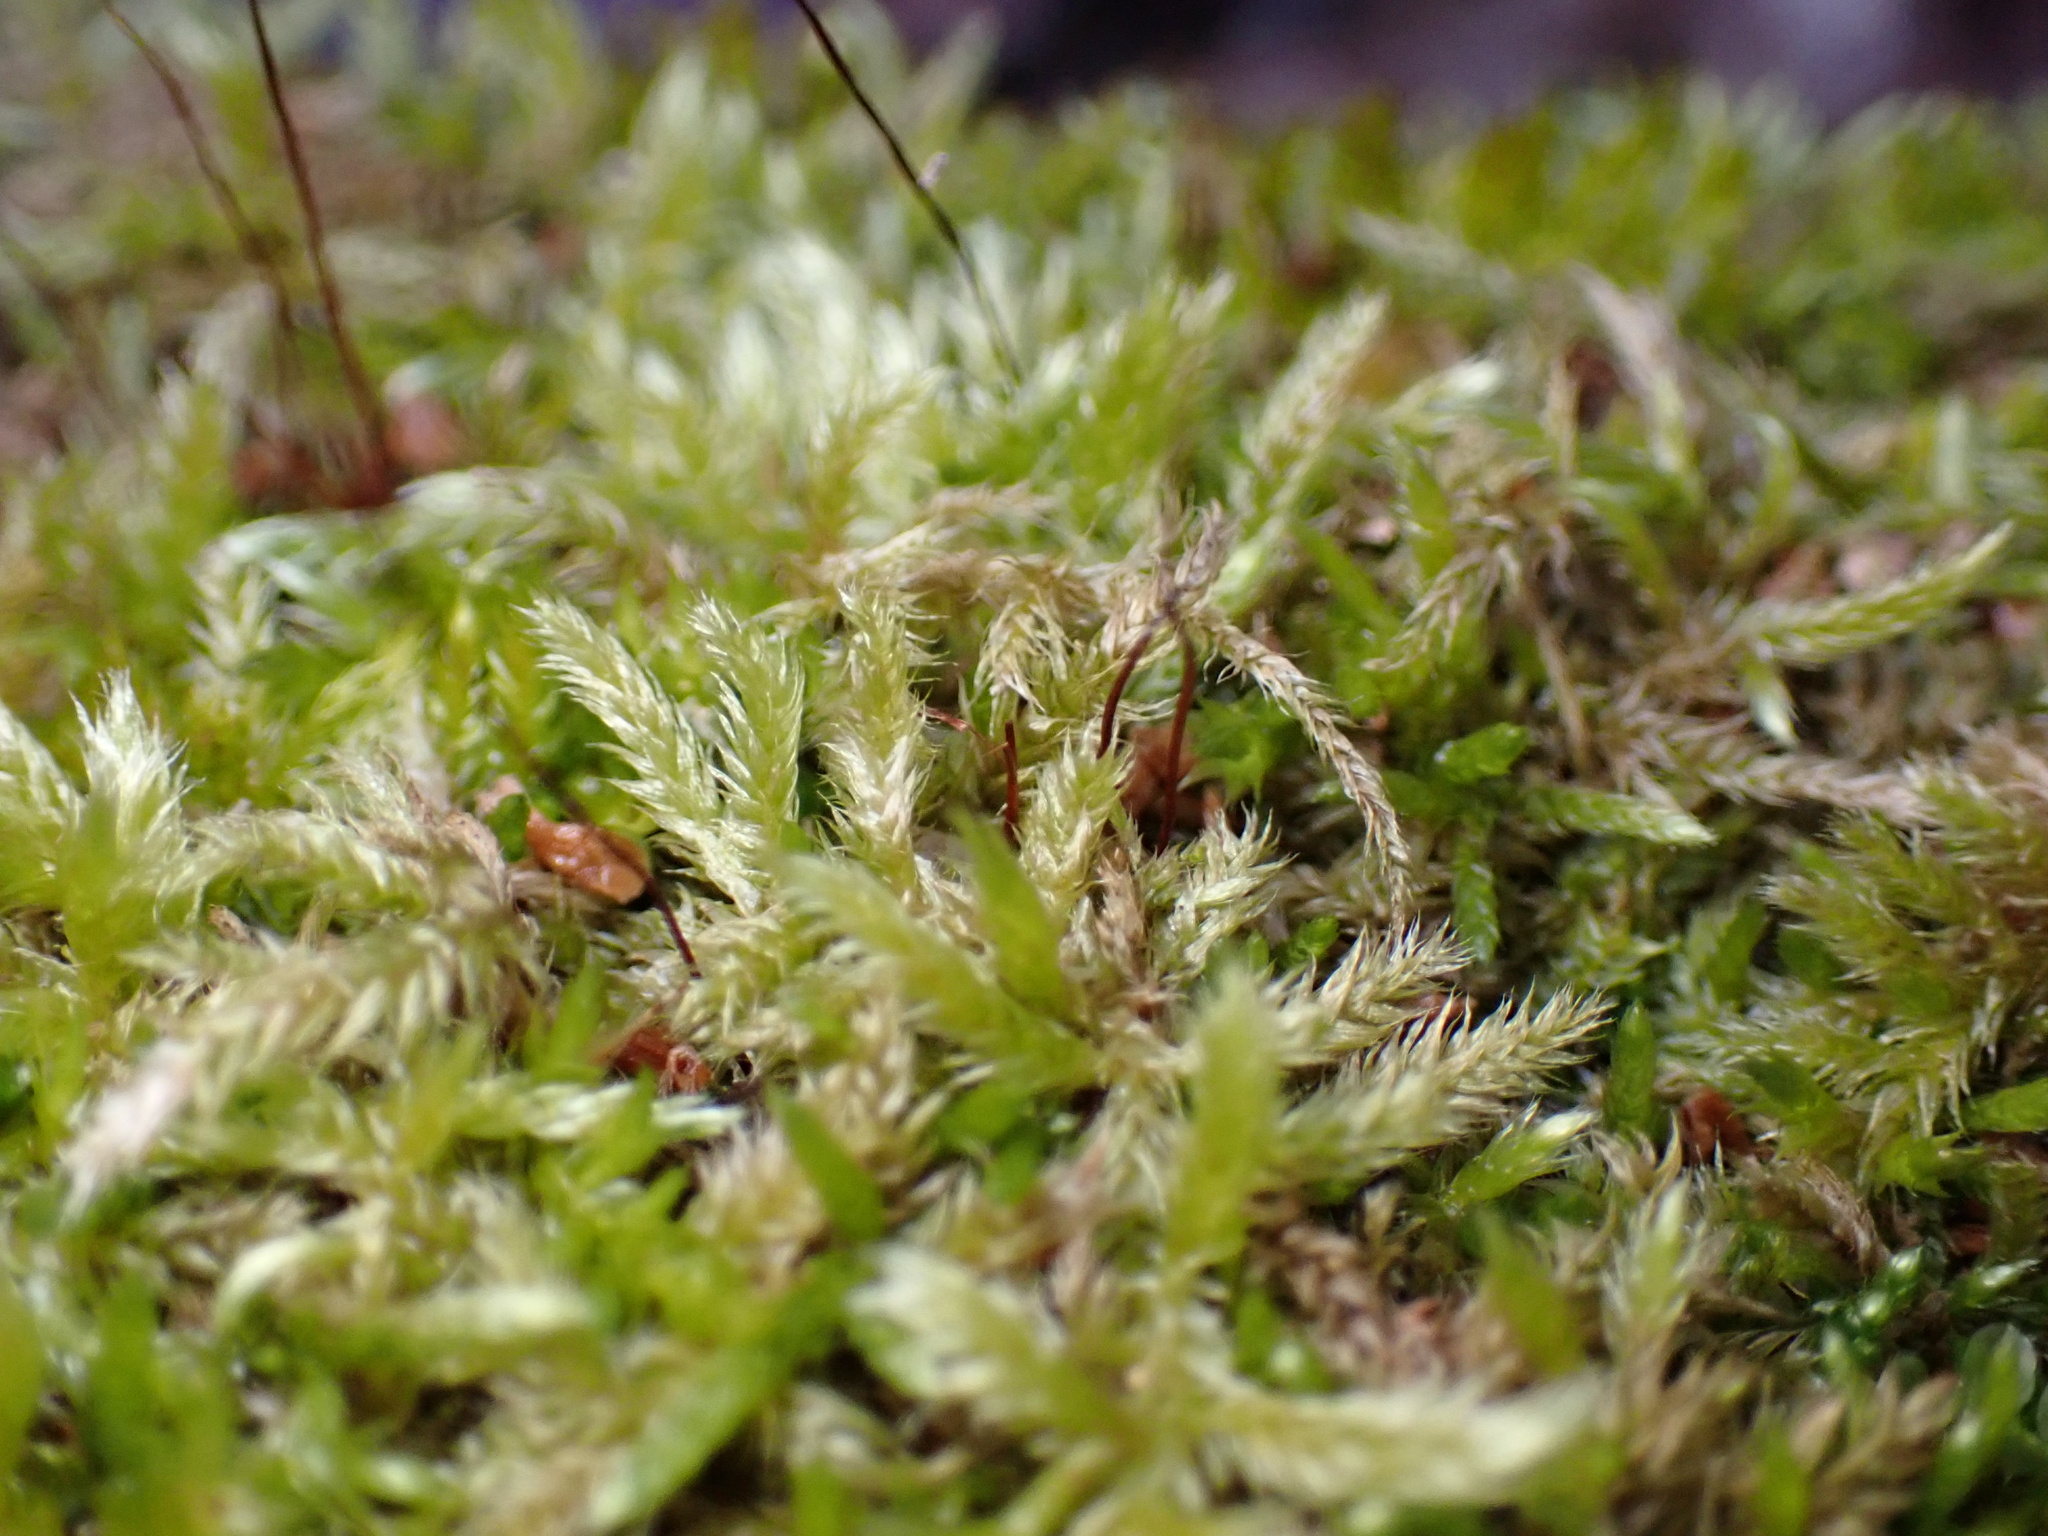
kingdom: Plantae
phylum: Bryophyta
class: Bryopsida
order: Hypnales
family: Callicladiaceae
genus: Callicladium
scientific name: Callicladium haldanianum
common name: Beautiful branch moss
